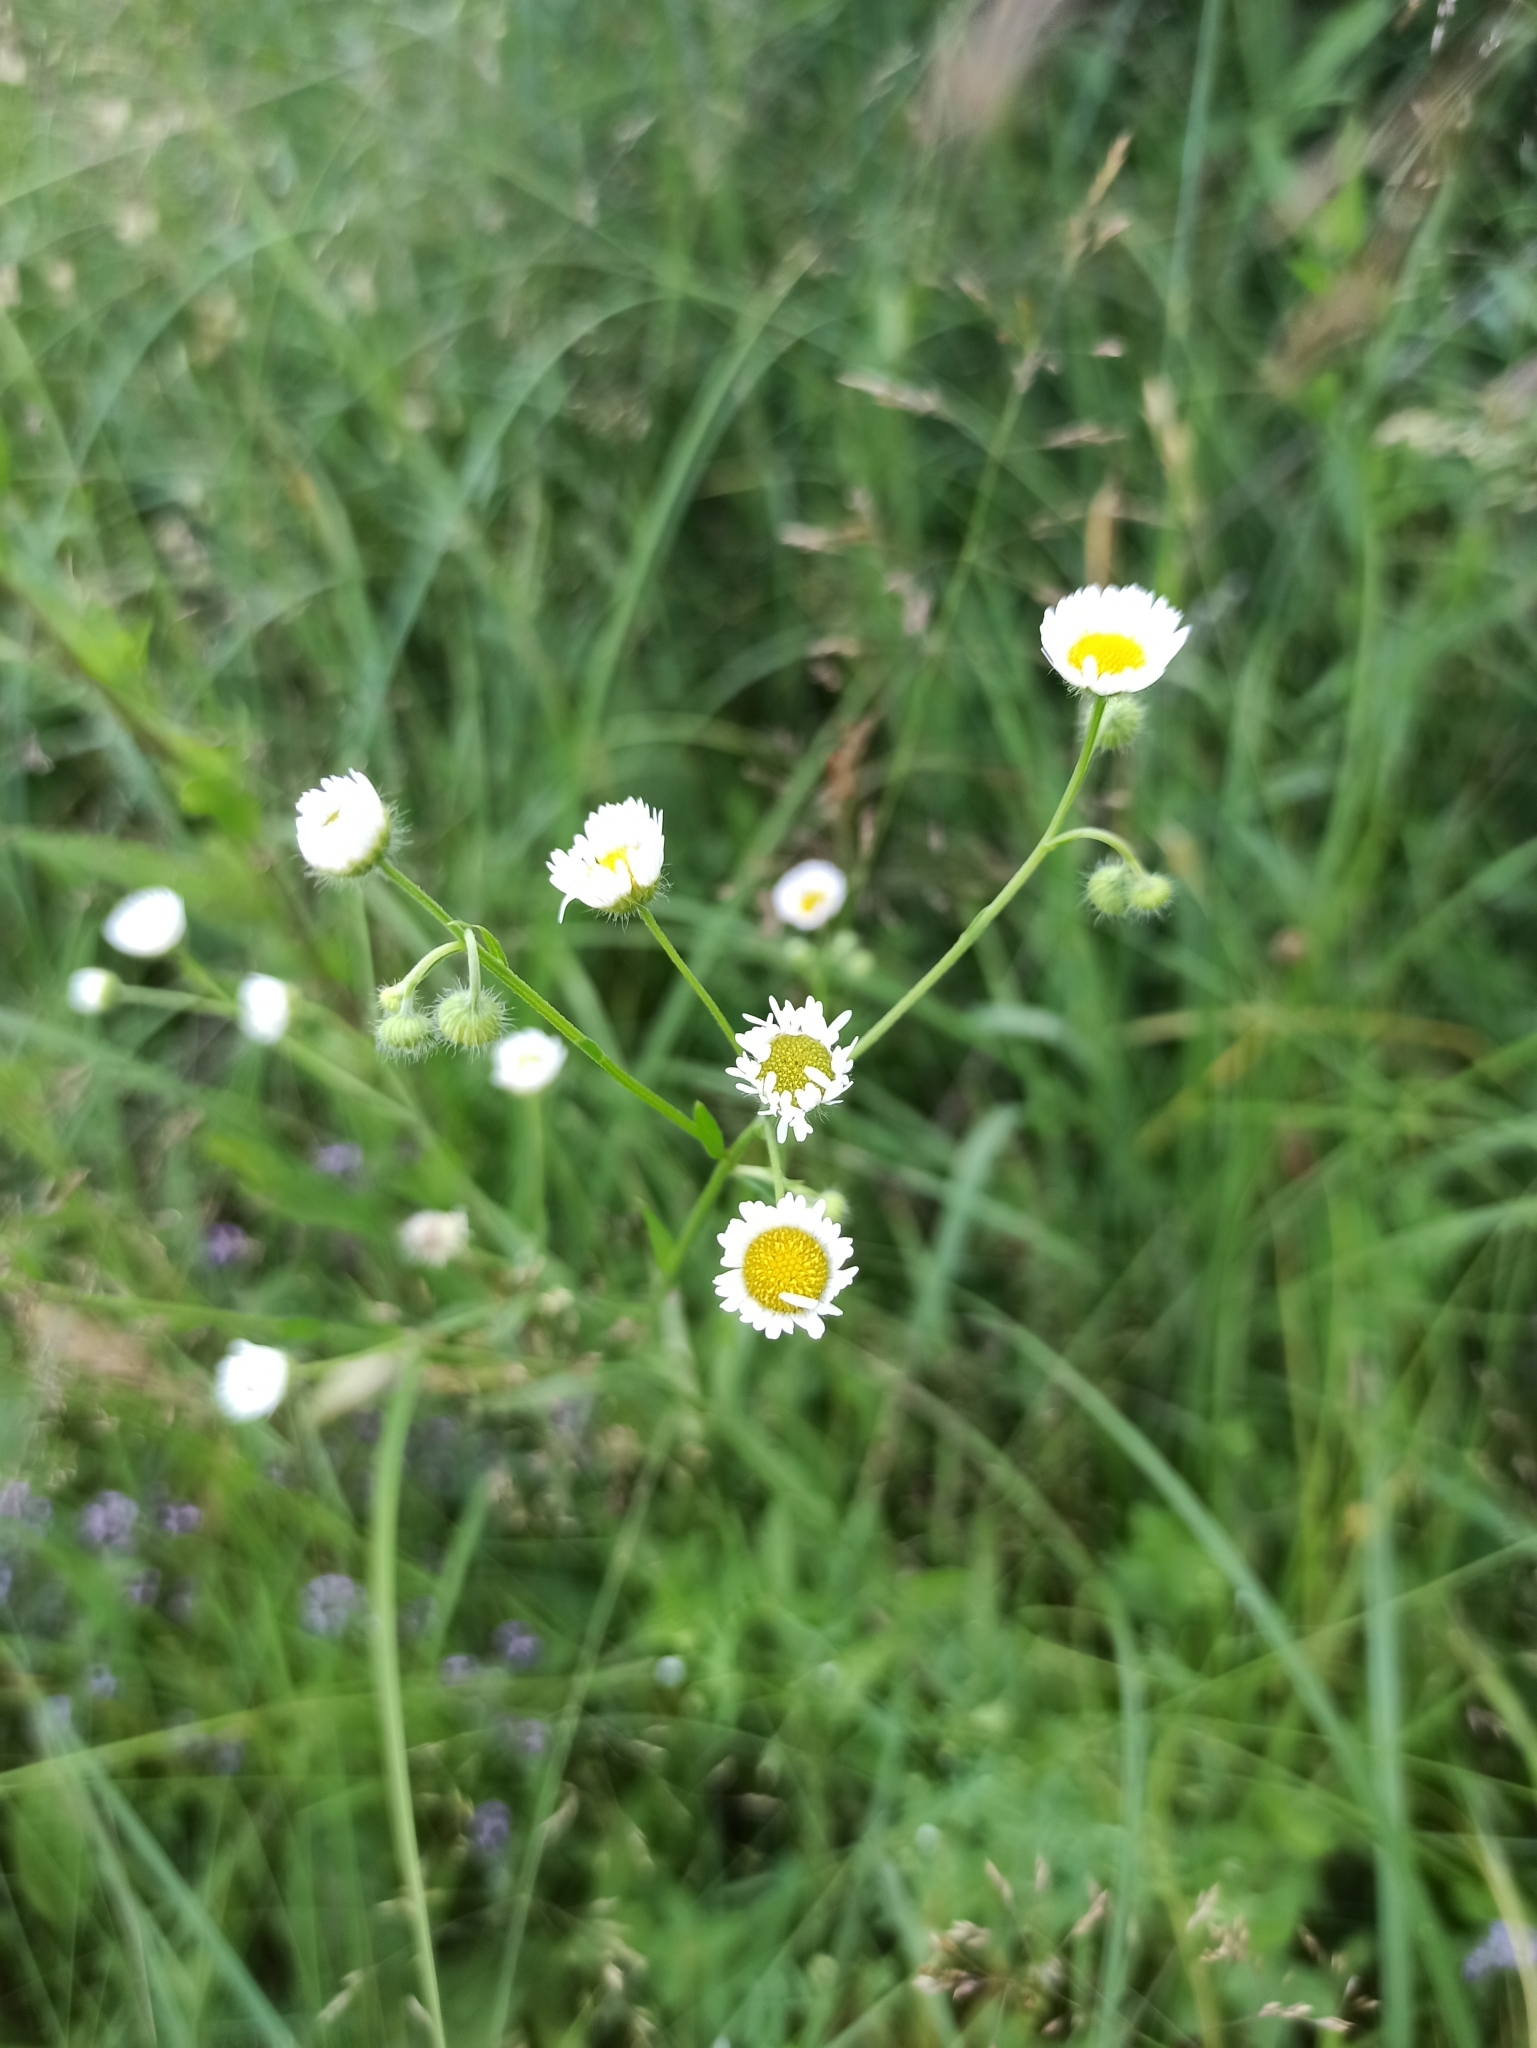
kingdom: Plantae
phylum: Tracheophyta
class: Magnoliopsida
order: Asterales
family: Asteraceae
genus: Erigeron
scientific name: Erigeron annuus
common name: Tall fleabane
